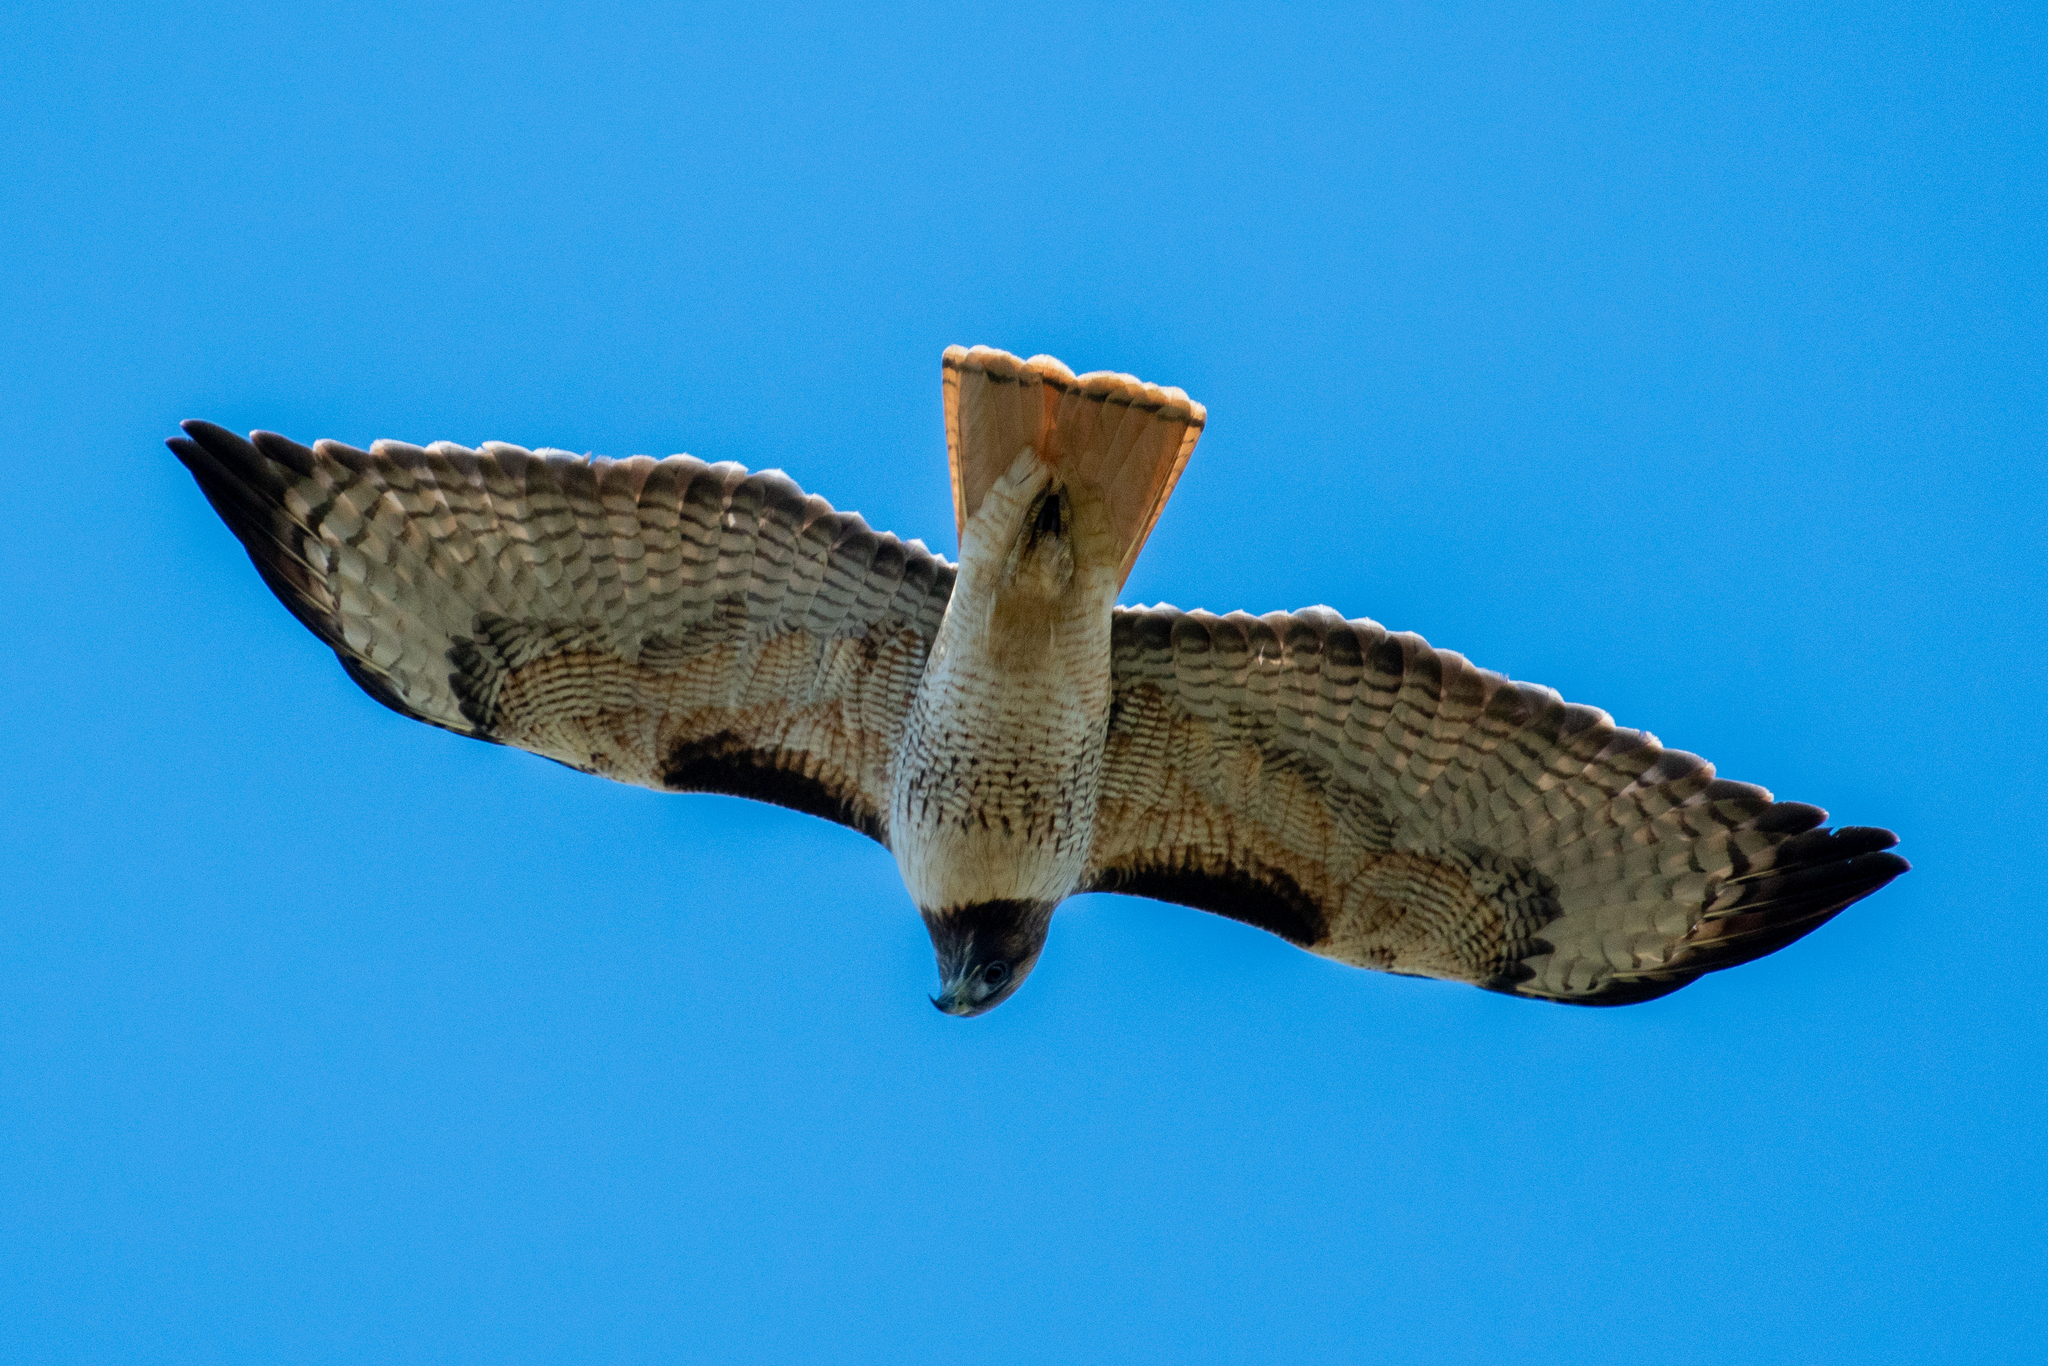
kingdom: Animalia
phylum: Chordata
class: Aves
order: Accipitriformes
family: Accipitridae
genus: Buteo
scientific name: Buteo jamaicensis
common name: Red-tailed hawk
